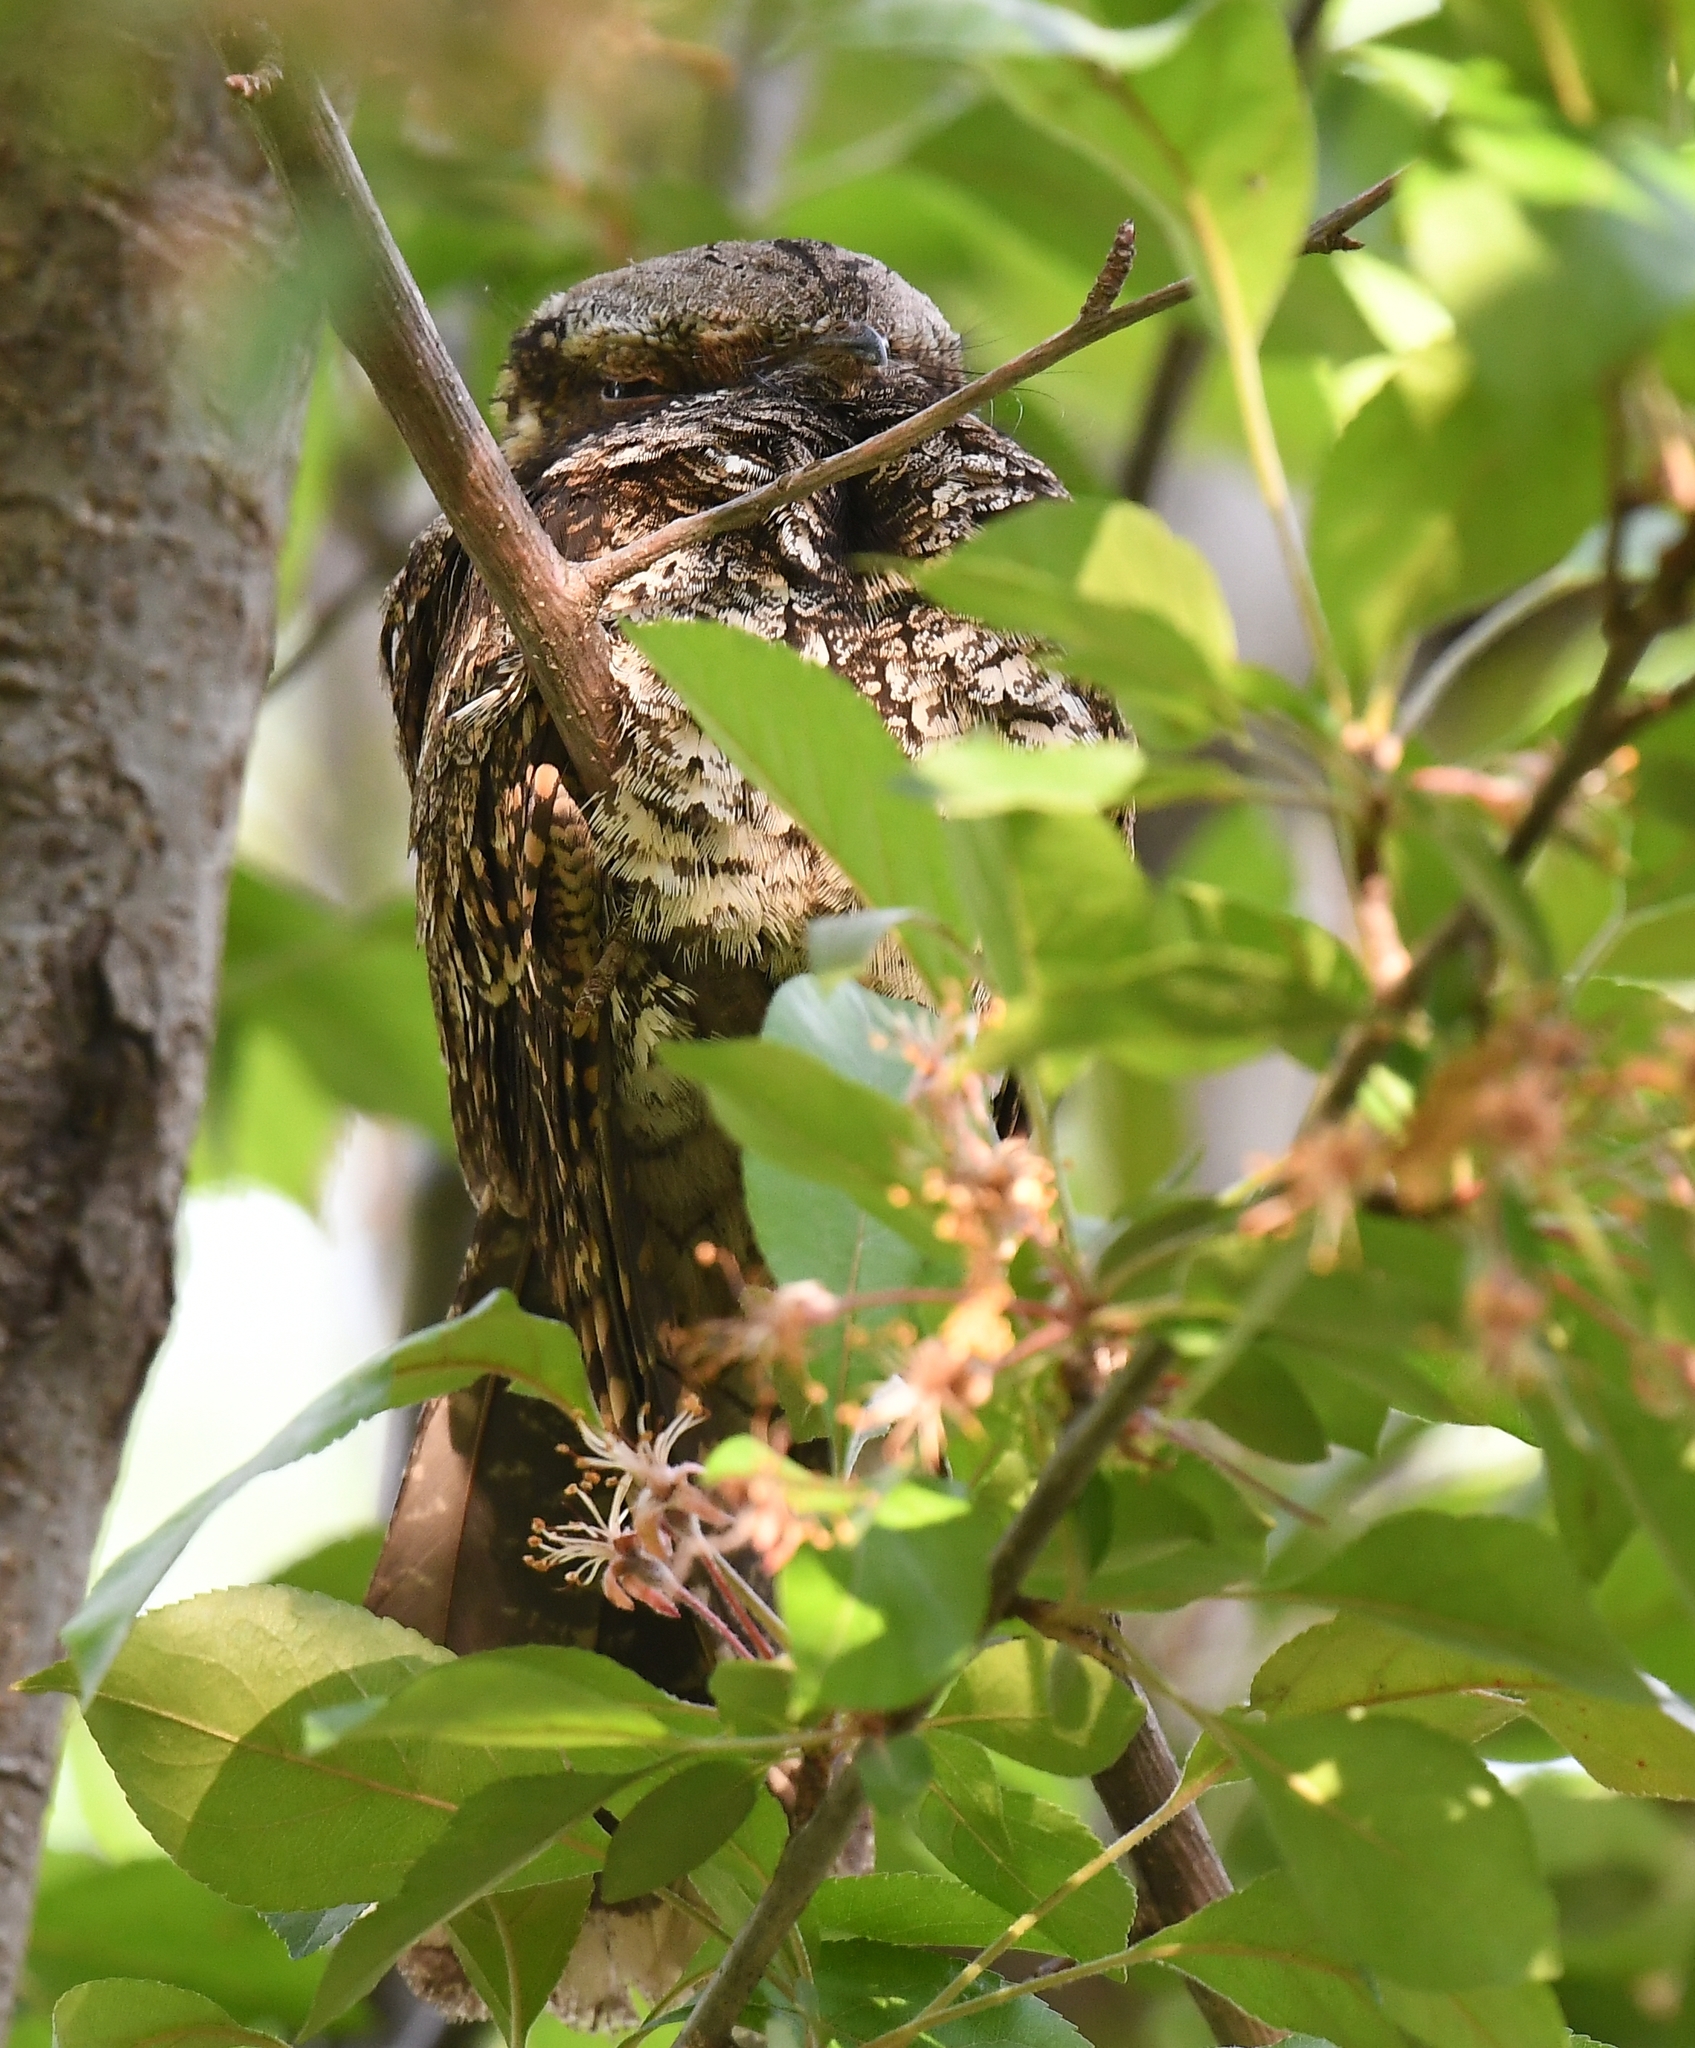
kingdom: Animalia
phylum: Chordata
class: Aves
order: Caprimulgiformes
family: Caprimulgidae
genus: Antrostomus
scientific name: Antrostomus vociferus
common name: Eastern whip-poor-will
